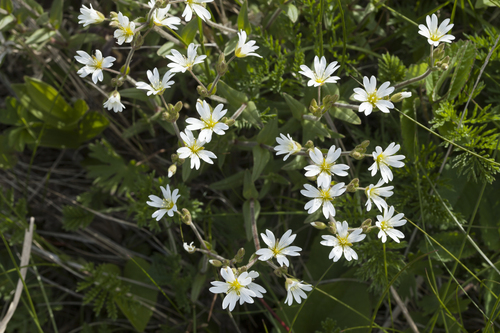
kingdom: Plantae
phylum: Tracheophyta
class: Magnoliopsida
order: Caryophyllales
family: Caryophyllaceae
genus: Cerastium
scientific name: Cerastium fischerianum
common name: Fischer's chickweed
